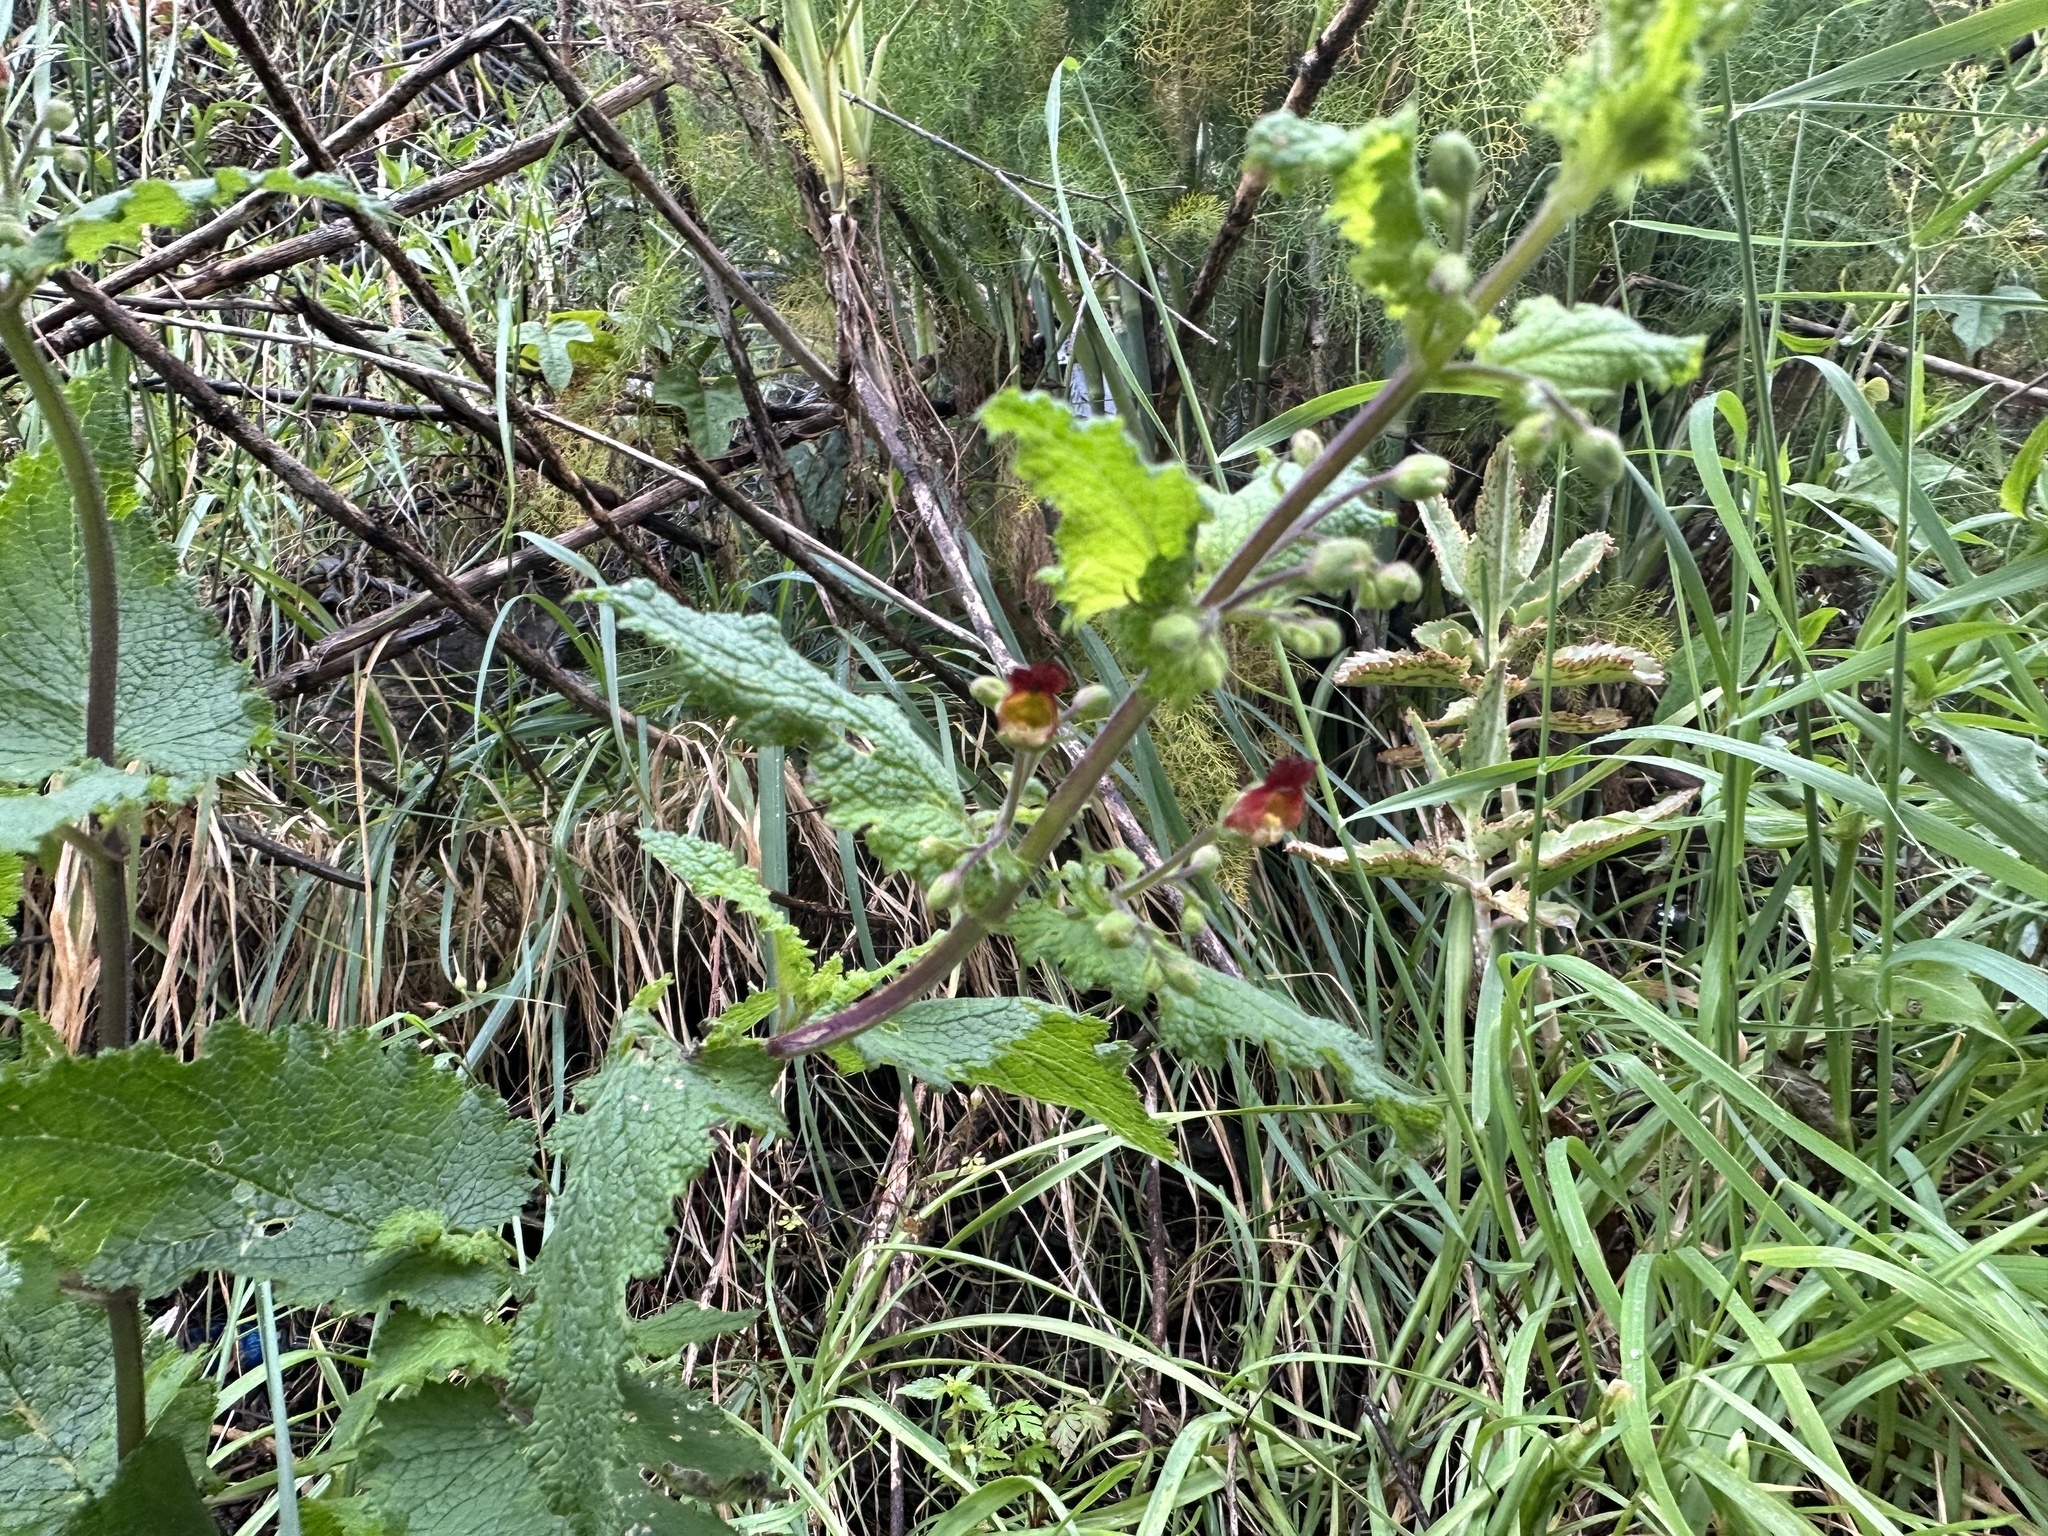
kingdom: Plantae
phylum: Tracheophyta
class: Magnoliopsida
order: Lamiales
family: Scrophulariaceae
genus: Scrophularia
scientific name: Scrophularia scorodonia
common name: Balm-leaved figwort
